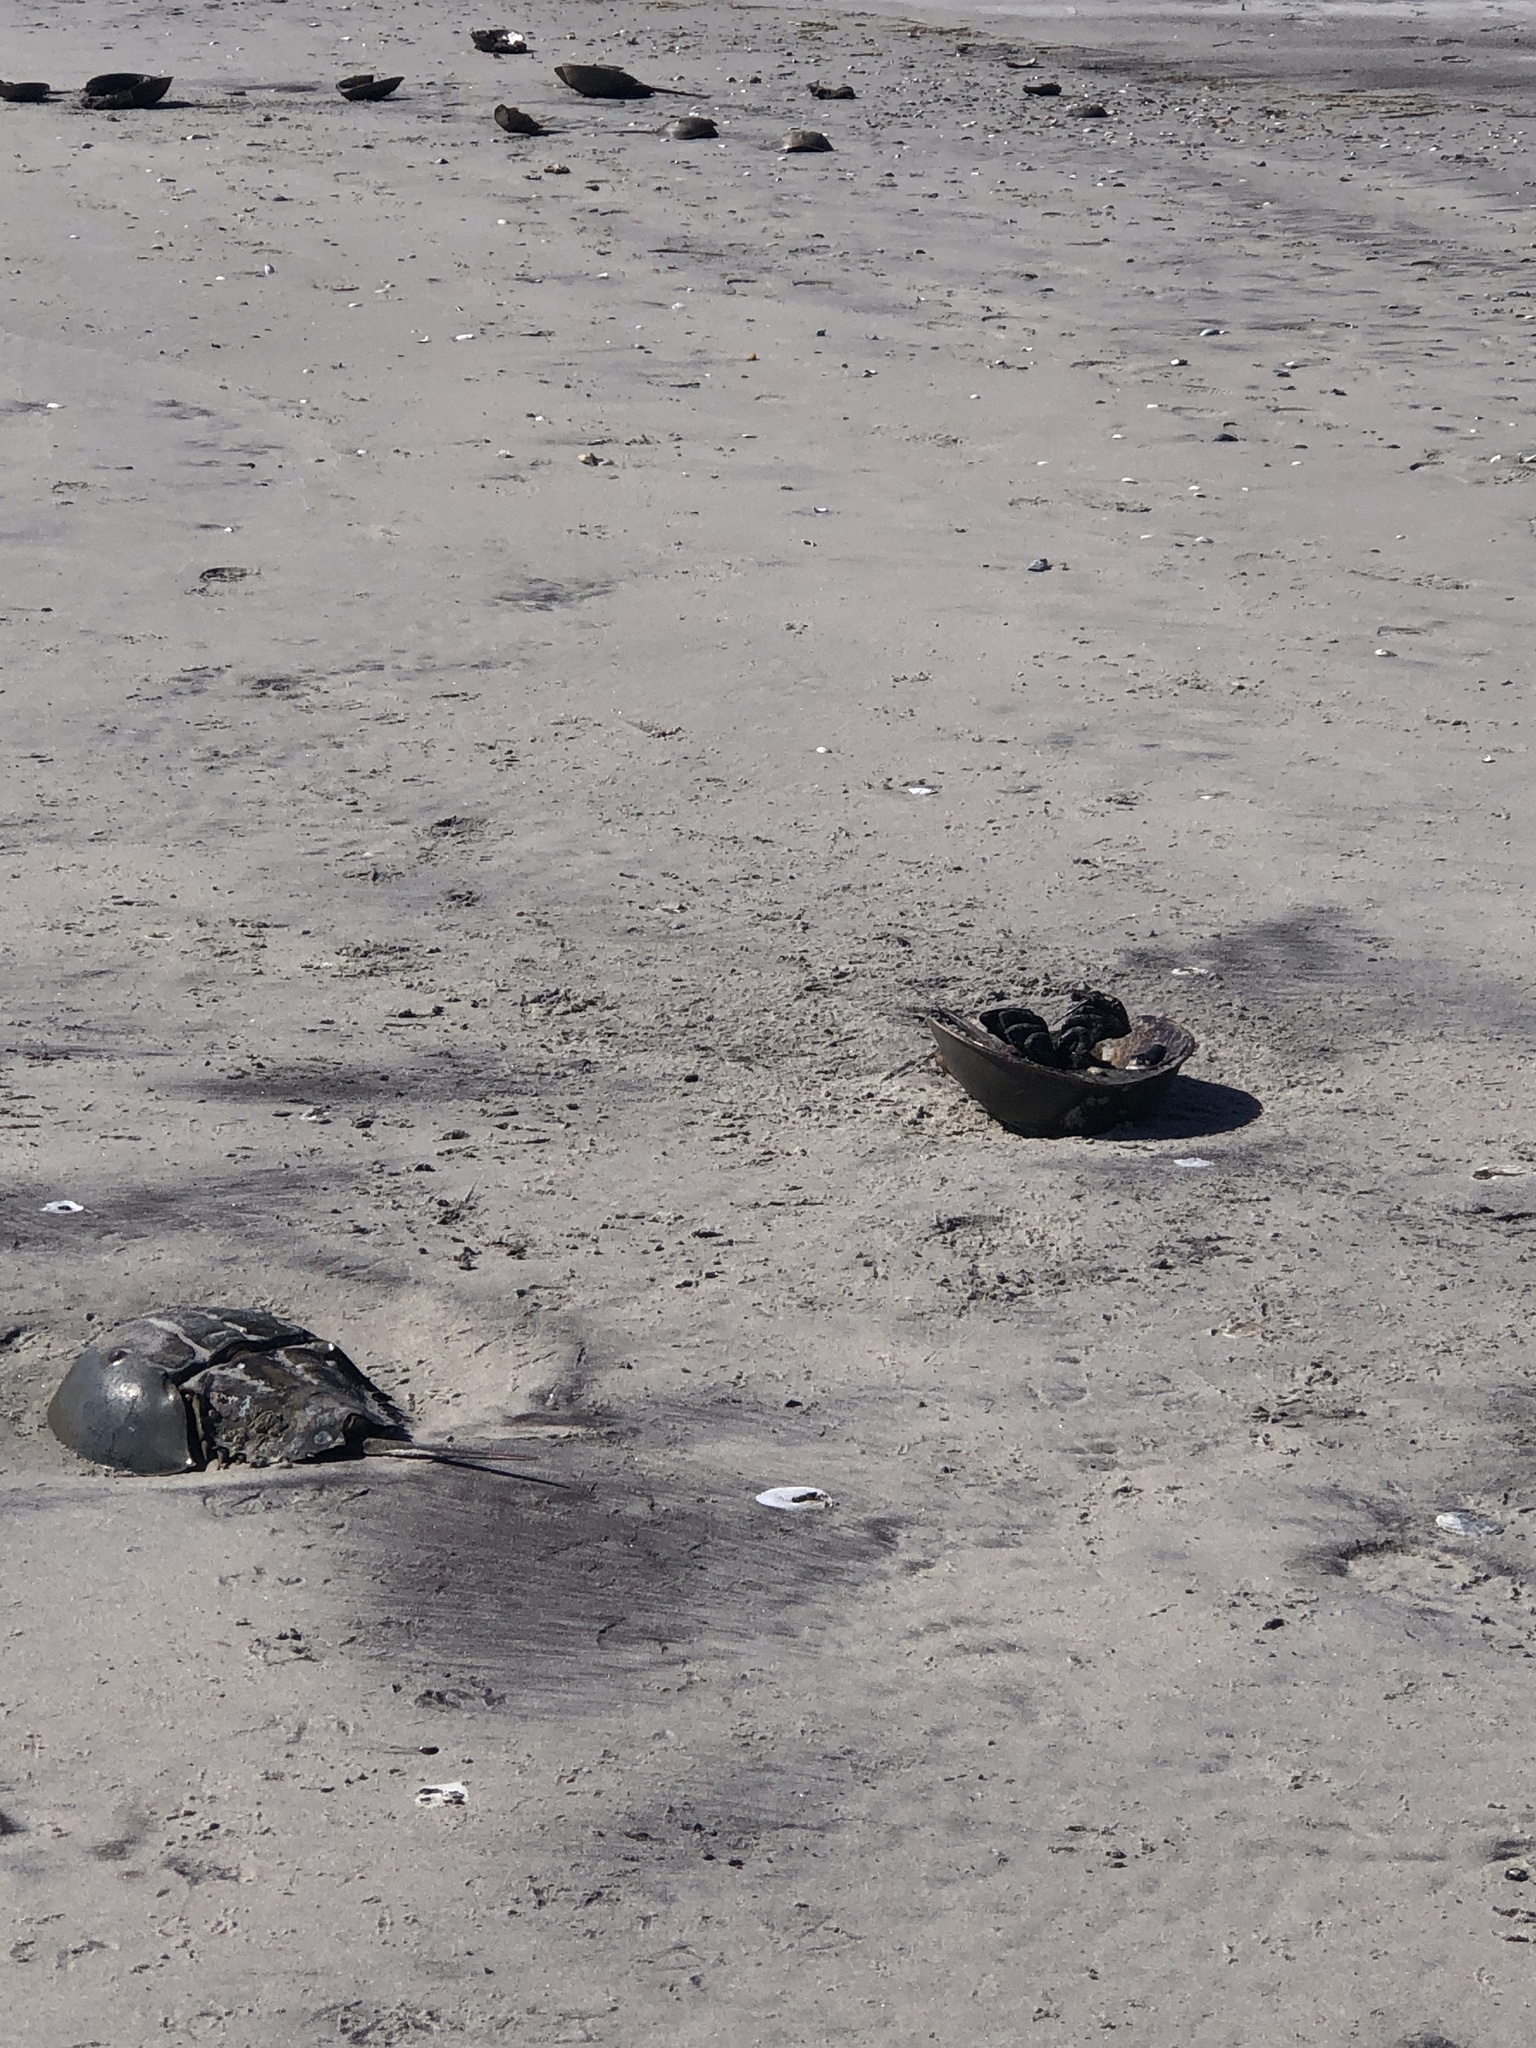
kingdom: Animalia
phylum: Arthropoda
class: Merostomata
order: Xiphosurida
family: Limulidae
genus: Limulus
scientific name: Limulus polyphemus
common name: Horseshoe crab
